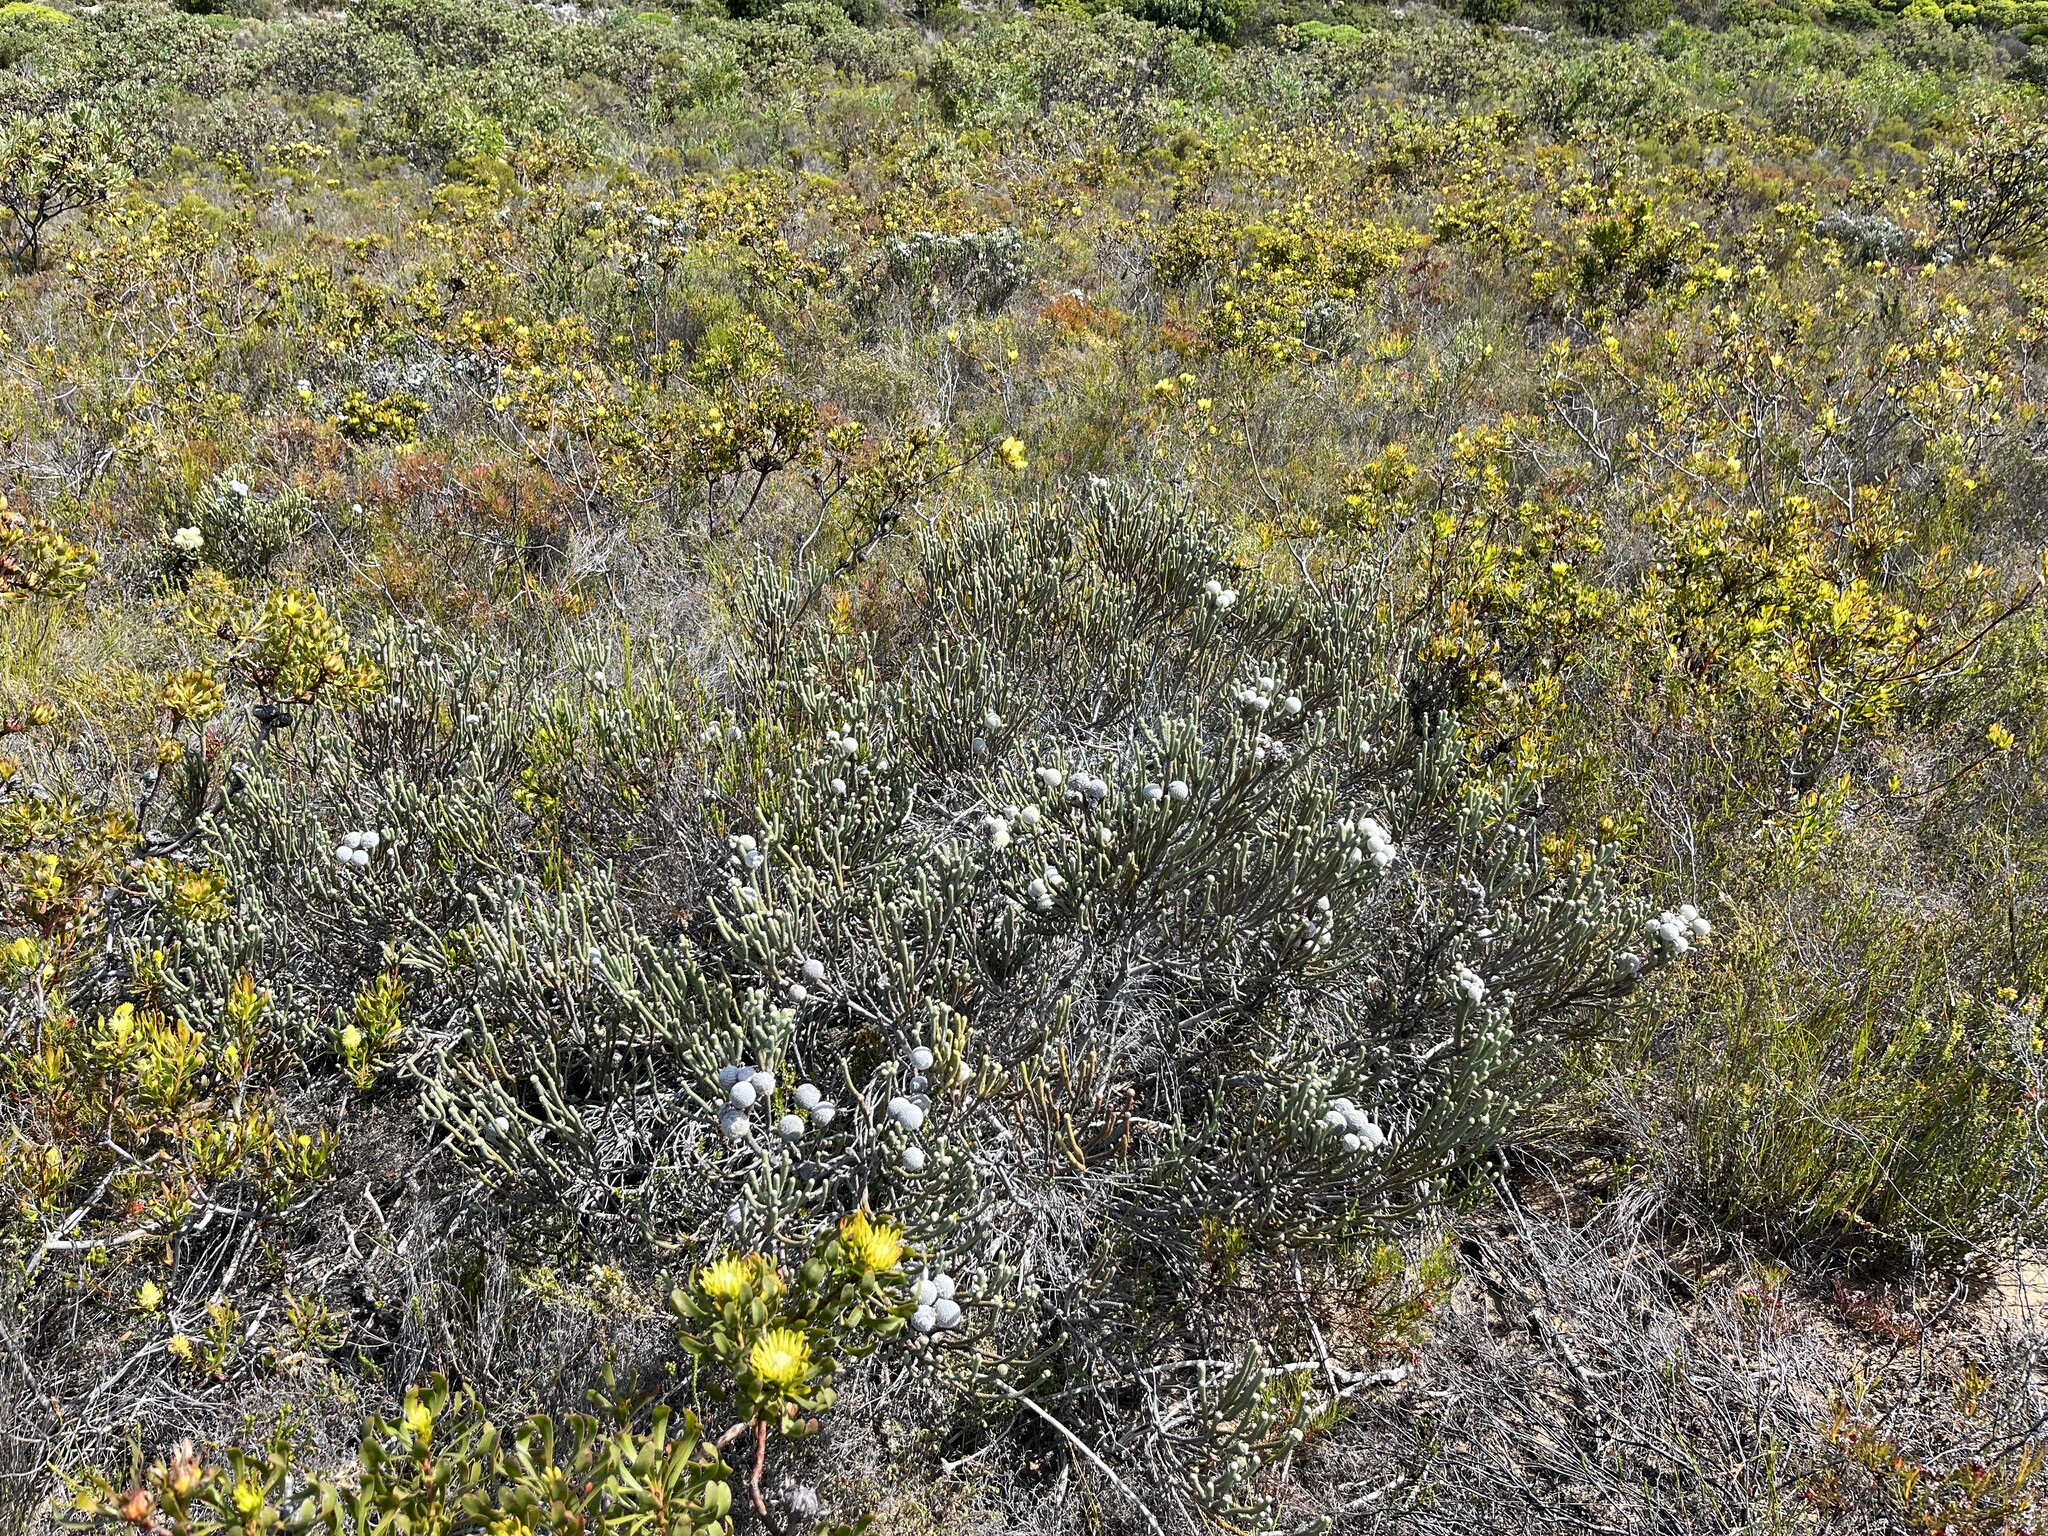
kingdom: Plantae
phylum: Tracheophyta
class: Magnoliopsida
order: Bruniales
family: Bruniaceae
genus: Brunia
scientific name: Brunia laevis
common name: Silver brunia
